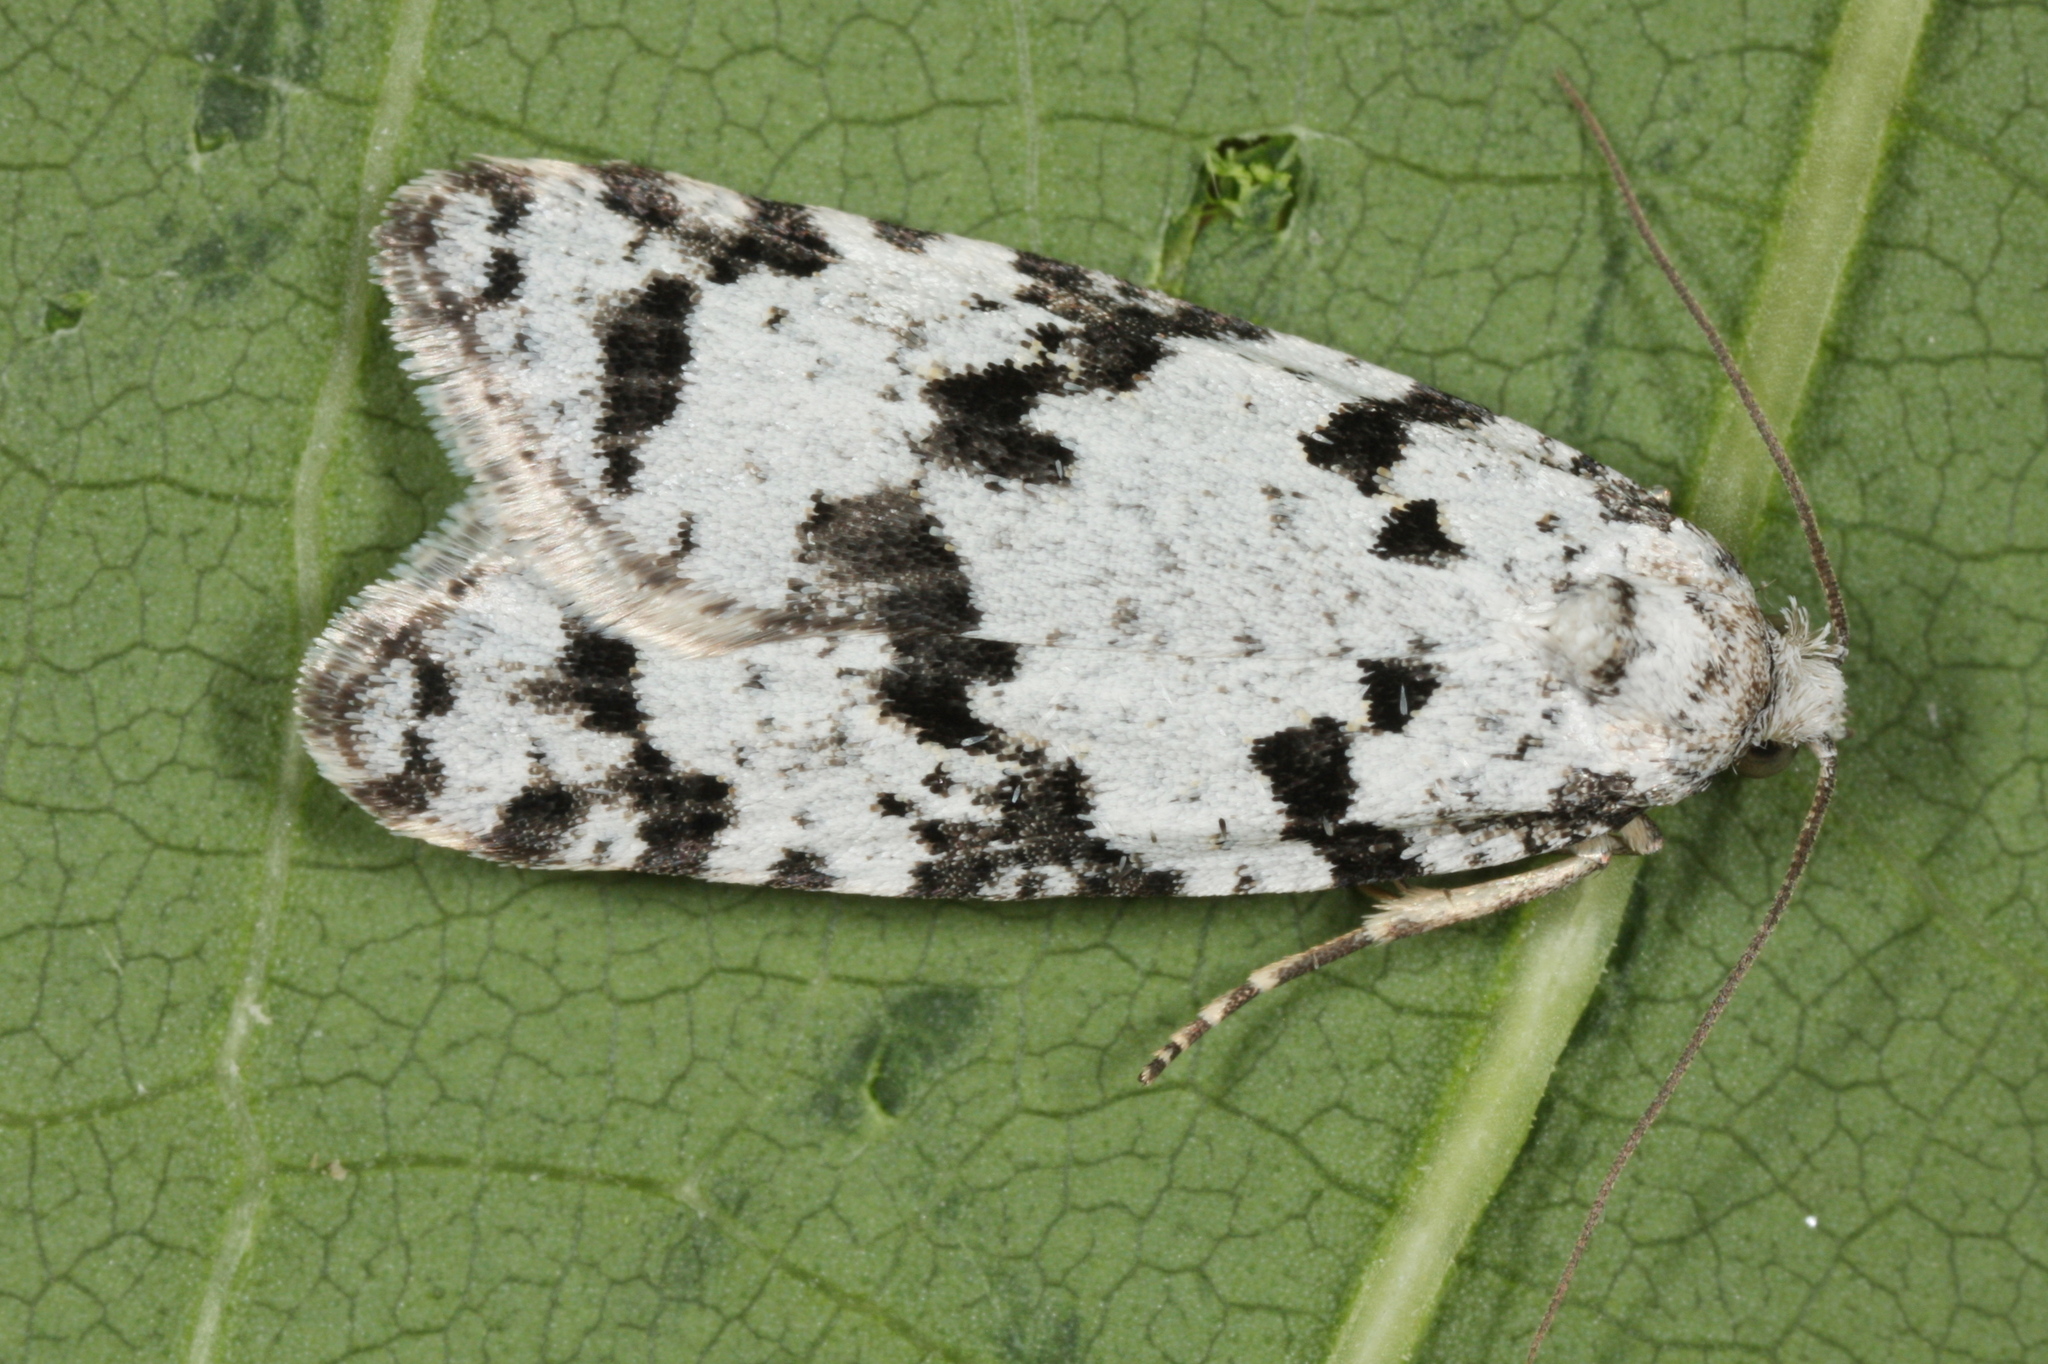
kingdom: Animalia
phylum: Arthropoda
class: Insecta
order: Lepidoptera
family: Tortricidae
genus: Eana
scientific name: Eana penziana
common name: Large mottled shade
